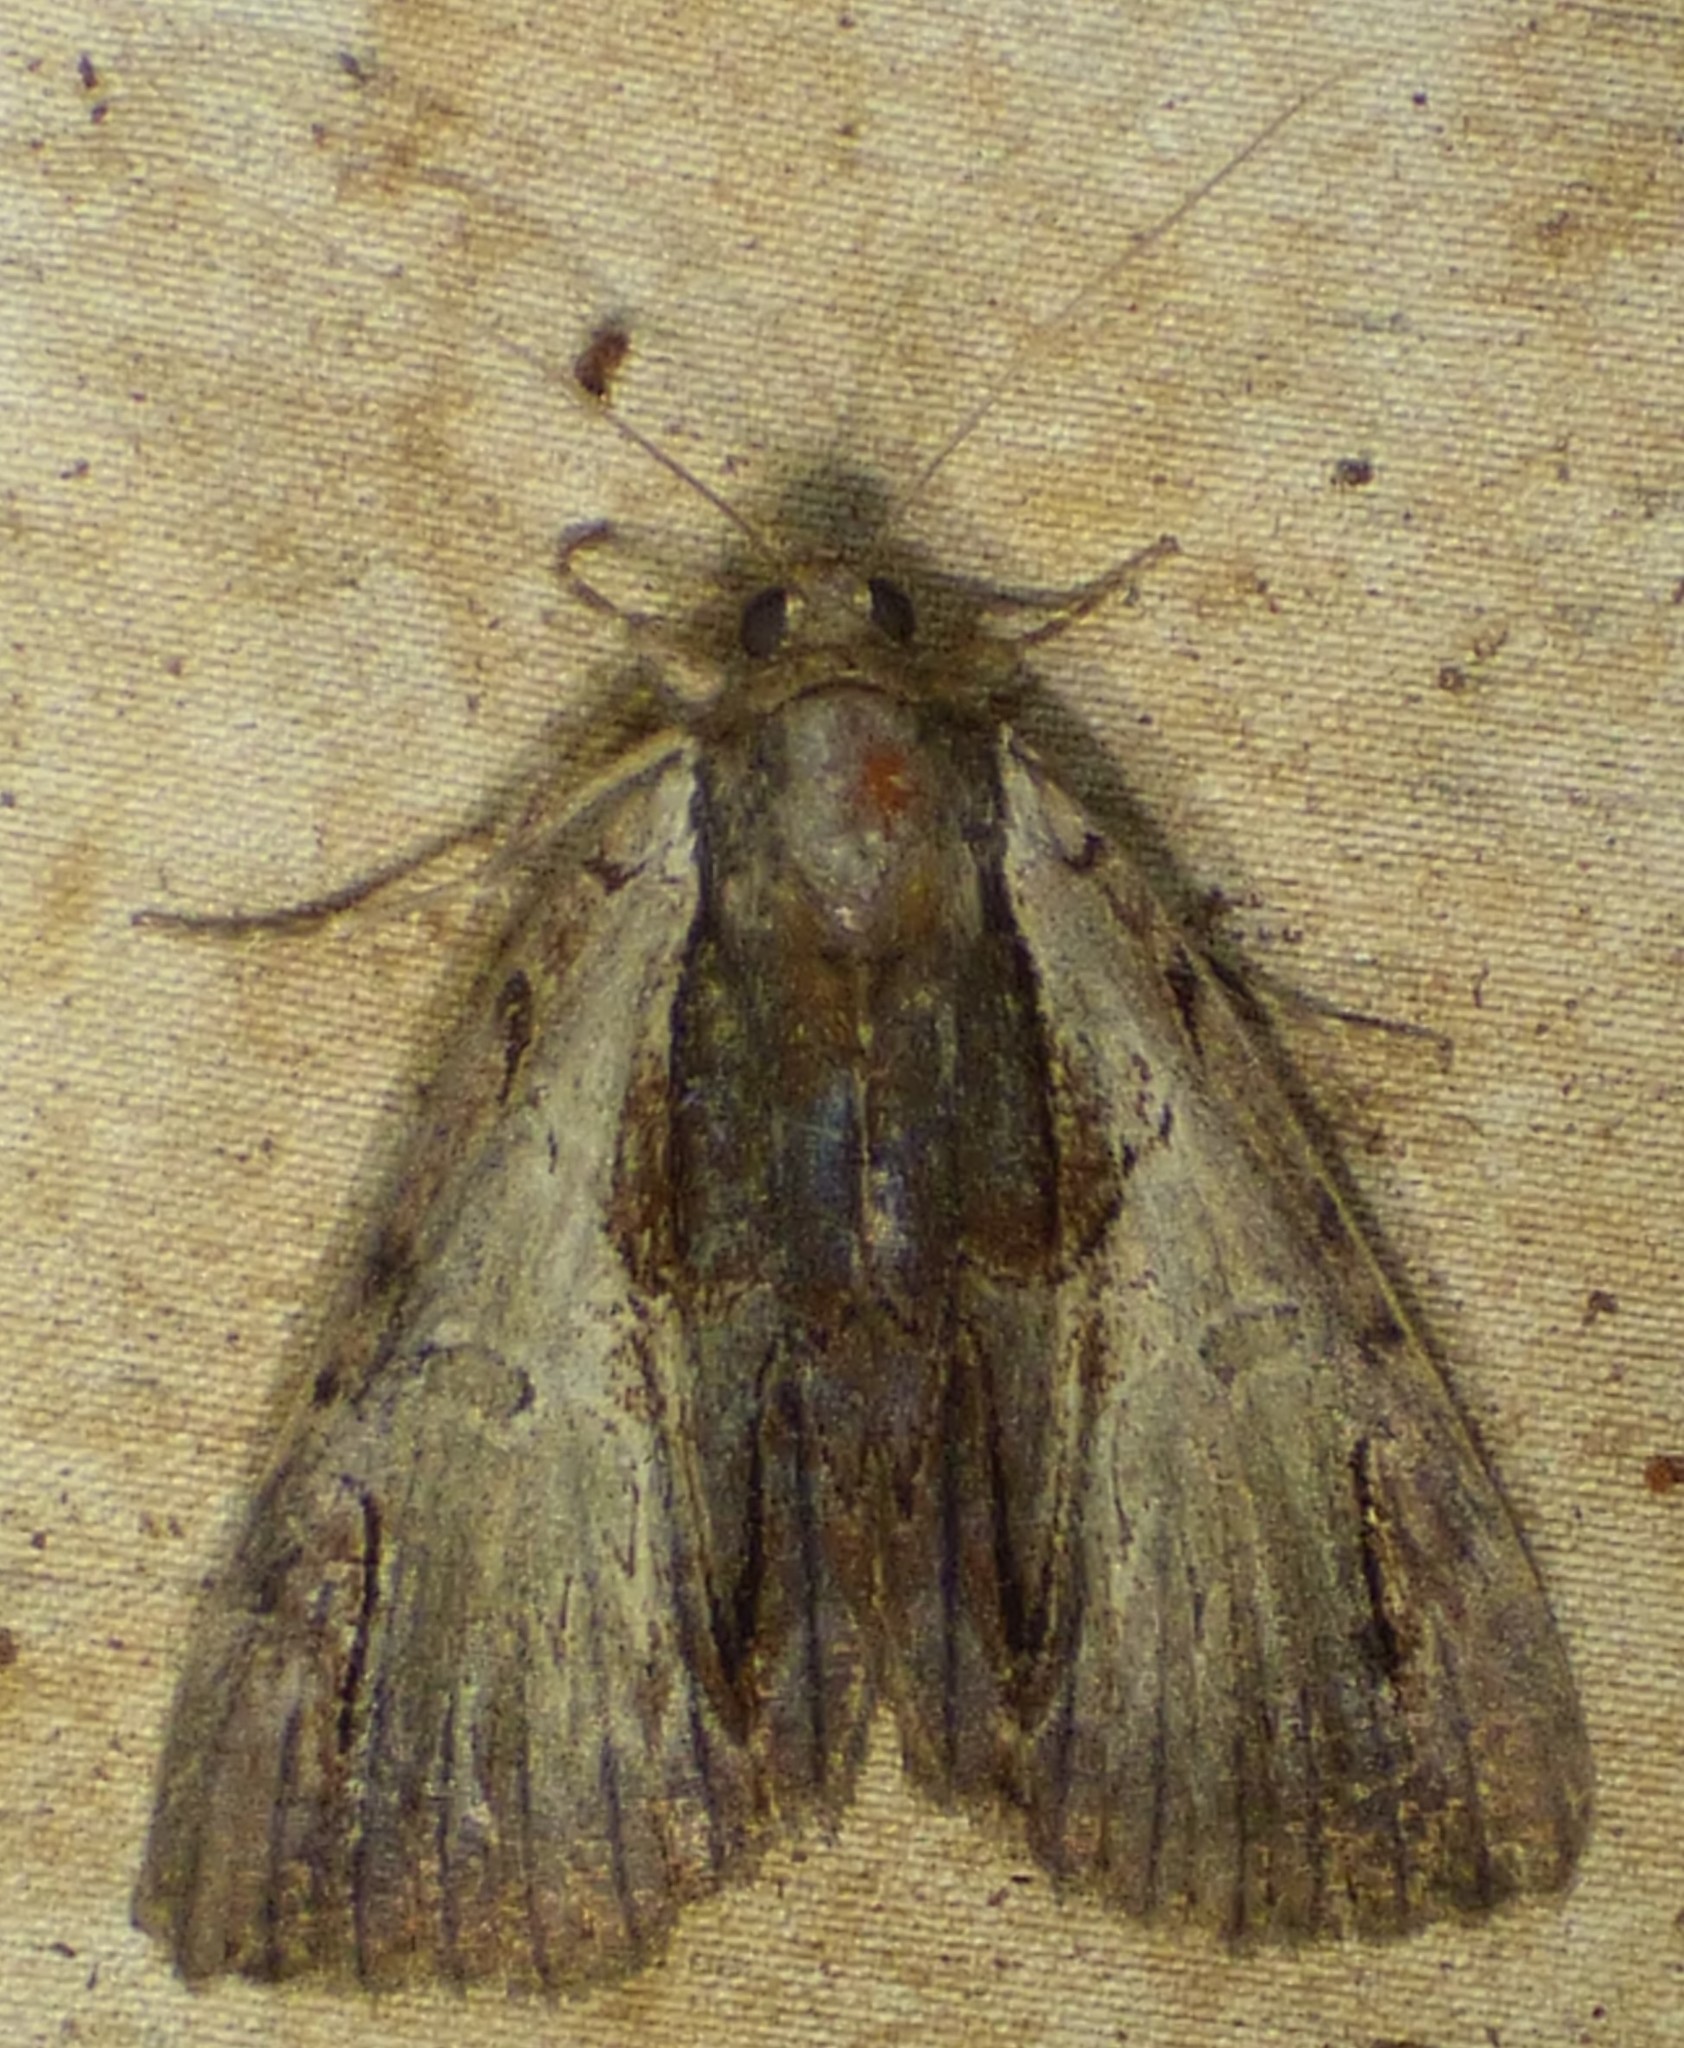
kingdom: Animalia
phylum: Arthropoda
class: Insecta
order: Lepidoptera
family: Erebidae
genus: Catocala
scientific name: Catocala ultronia
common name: Ultronia underwing
